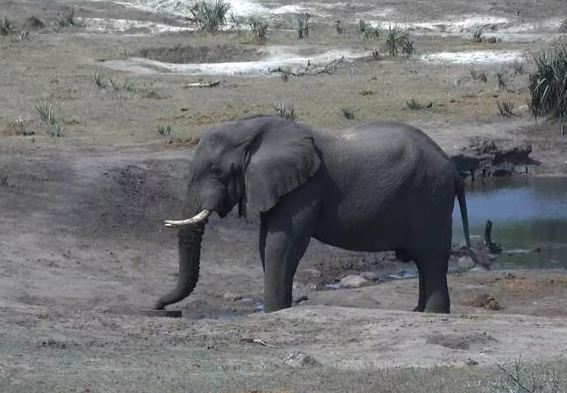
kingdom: Animalia
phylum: Chordata
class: Mammalia
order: Proboscidea
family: Elephantidae
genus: Loxodonta
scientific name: Loxodonta africana
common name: African elephant
